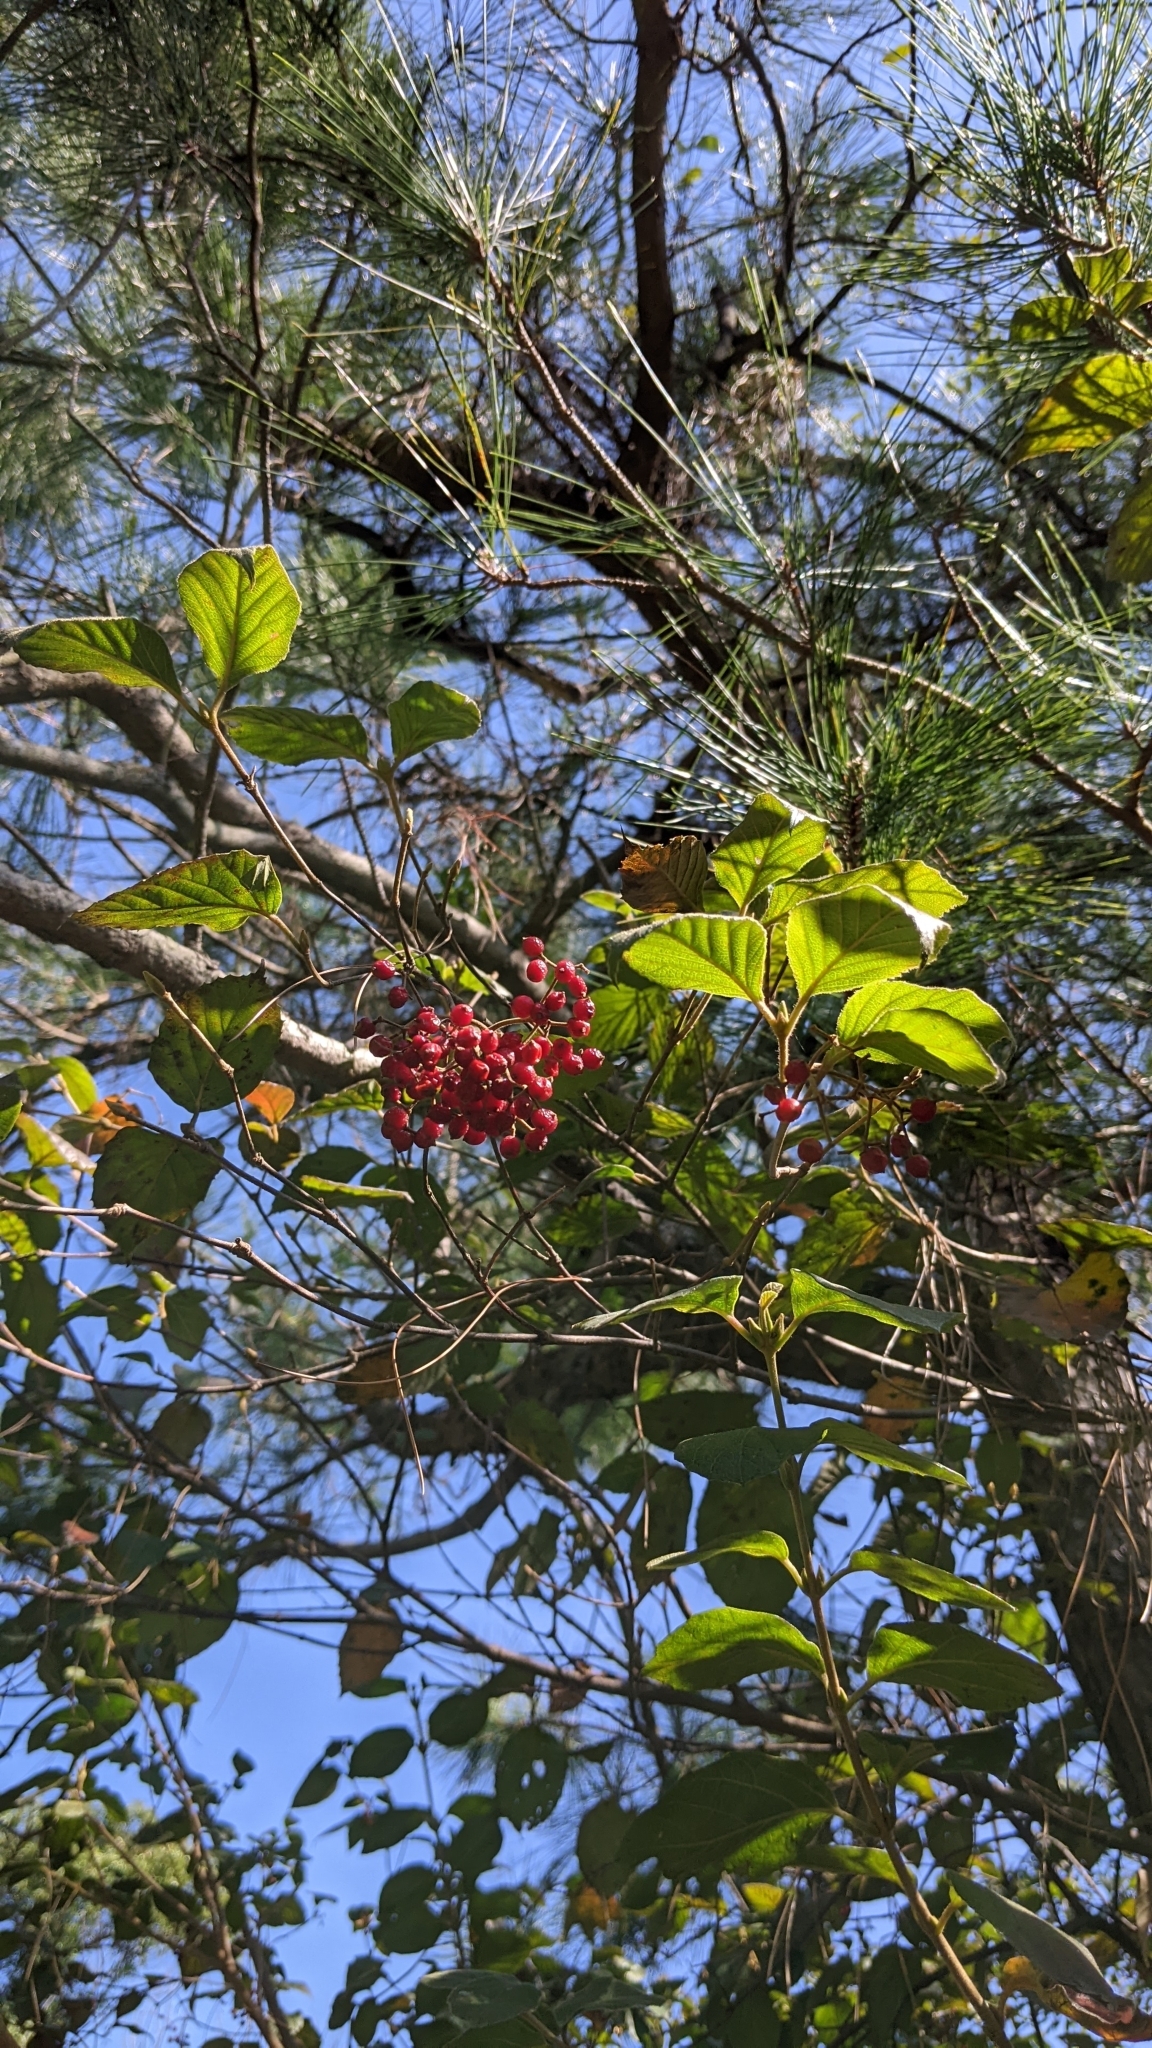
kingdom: Plantae
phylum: Tracheophyta
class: Magnoliopsida
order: Dipsacales
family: Viburnaceae
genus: Viburnum
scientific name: Viburnum luzonicum
